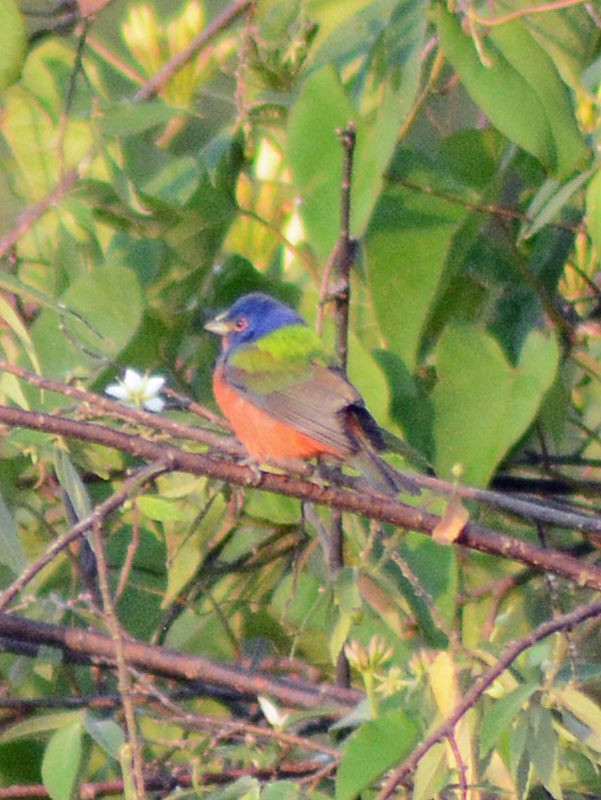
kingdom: Animalia
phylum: Chordata
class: Aves
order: Passeriformes
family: Cardinalidae
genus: Passerina
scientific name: Passerina ciris
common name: Painted bunting
